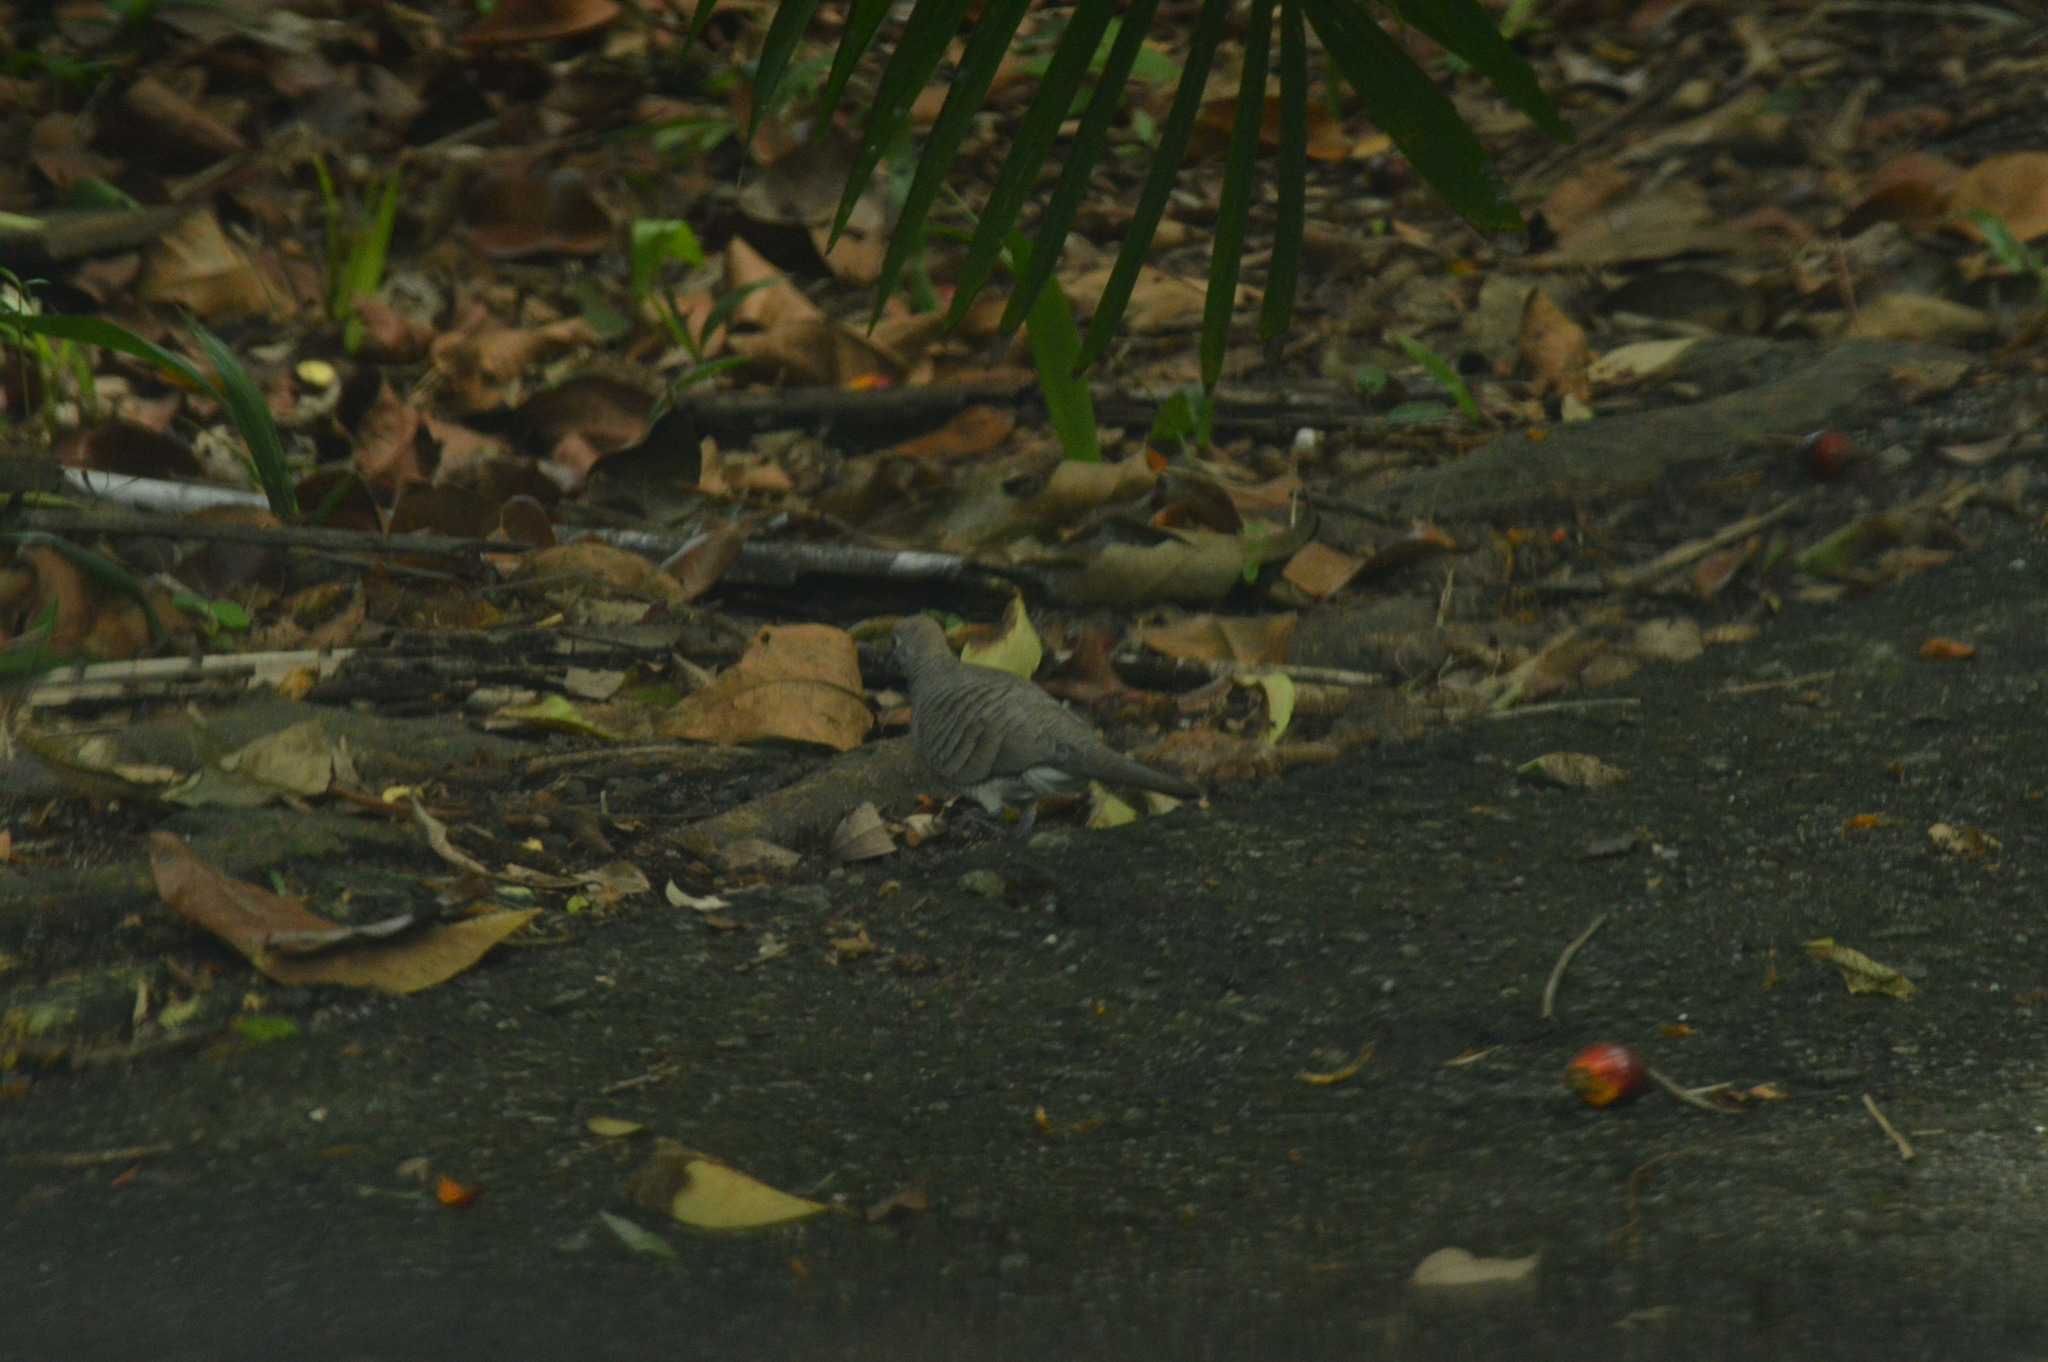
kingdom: Animalia
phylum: Chordata
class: Aves
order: Columbiformes
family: Columbidae
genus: Geopelia
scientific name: Geopelia striata
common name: Zebra dove
